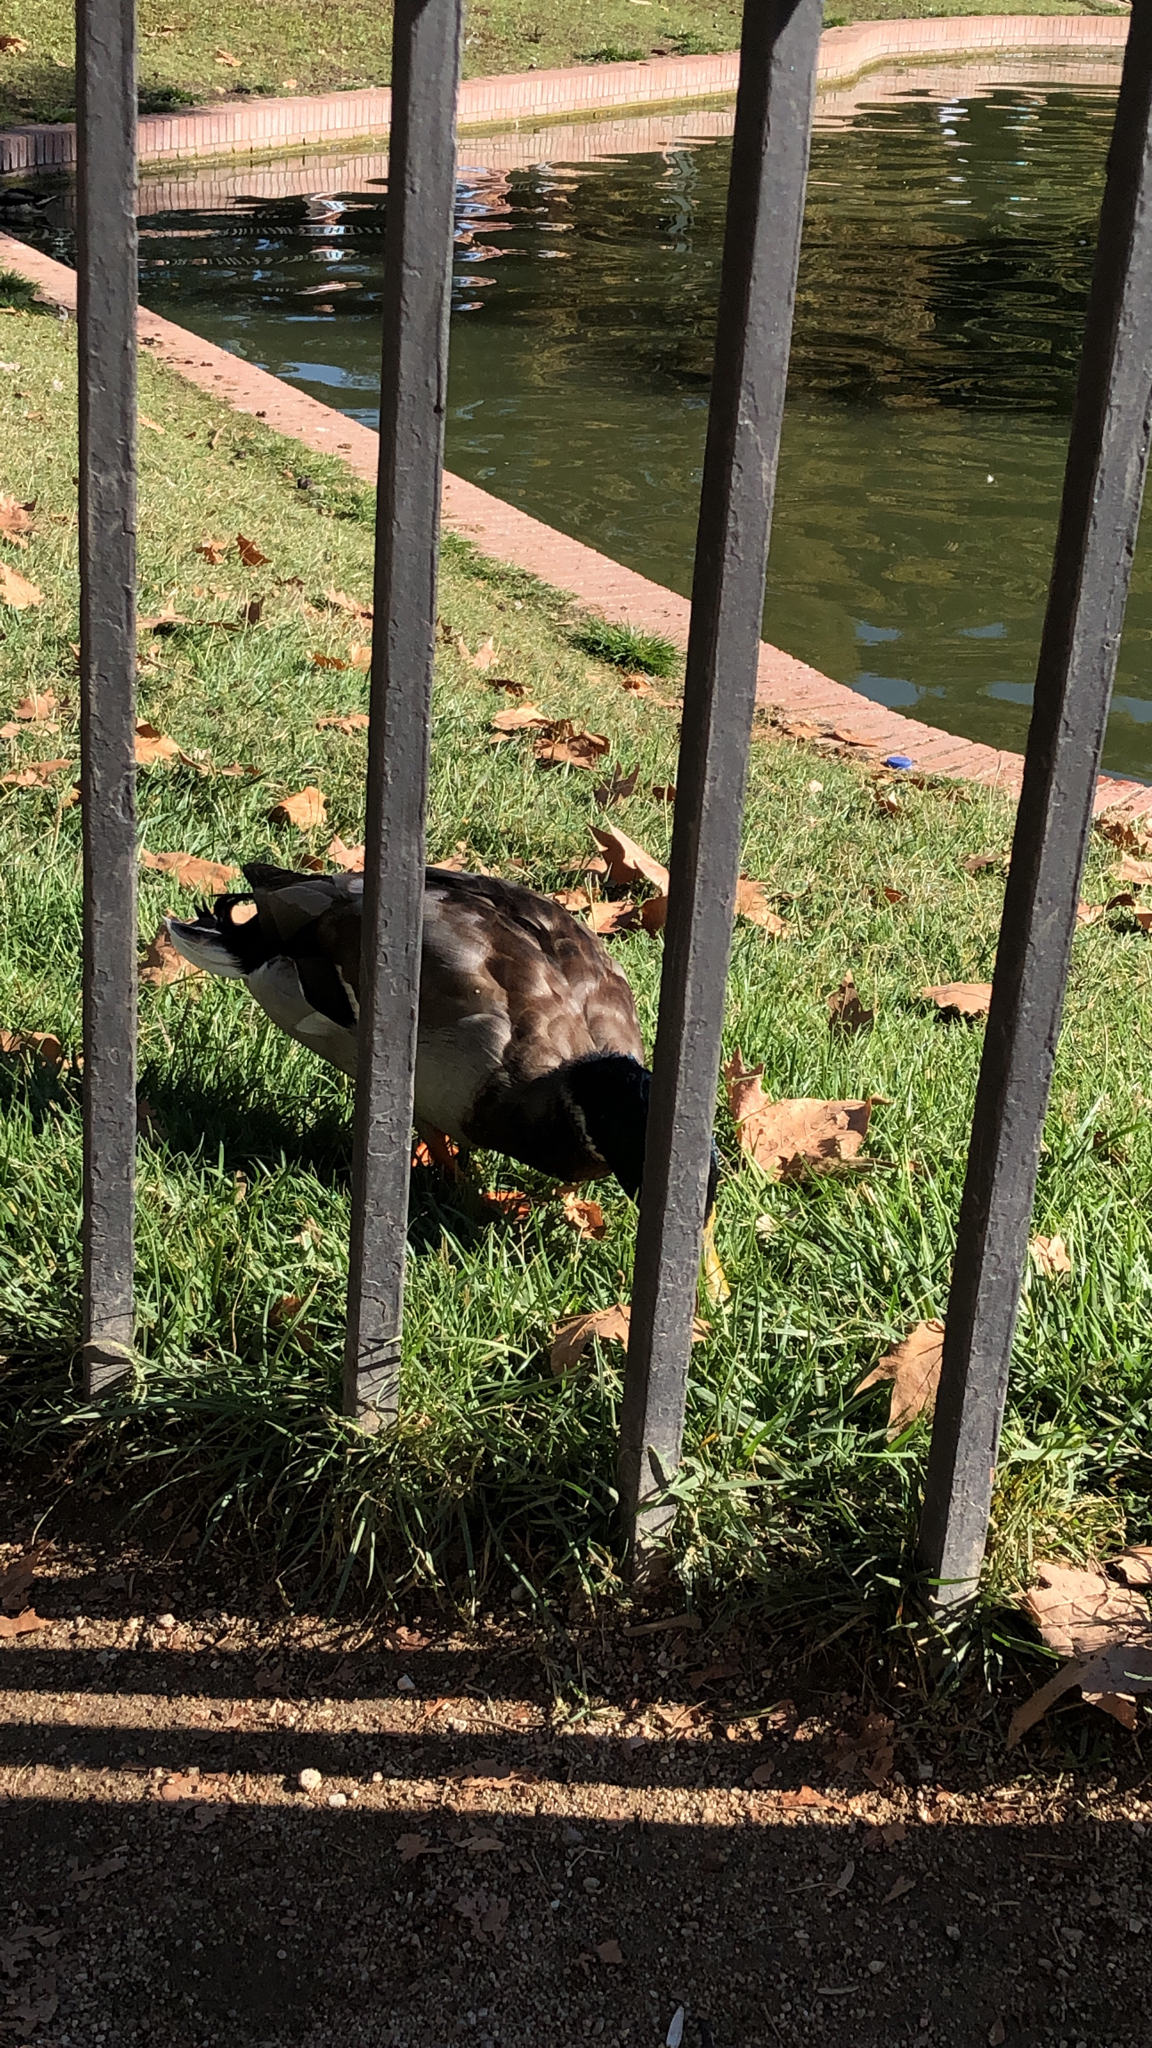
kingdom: Animalia
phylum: Chordata
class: Aves
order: Anseriformes
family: Anatidae
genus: Anas
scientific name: Anas platyrhynchos
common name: Mallard
